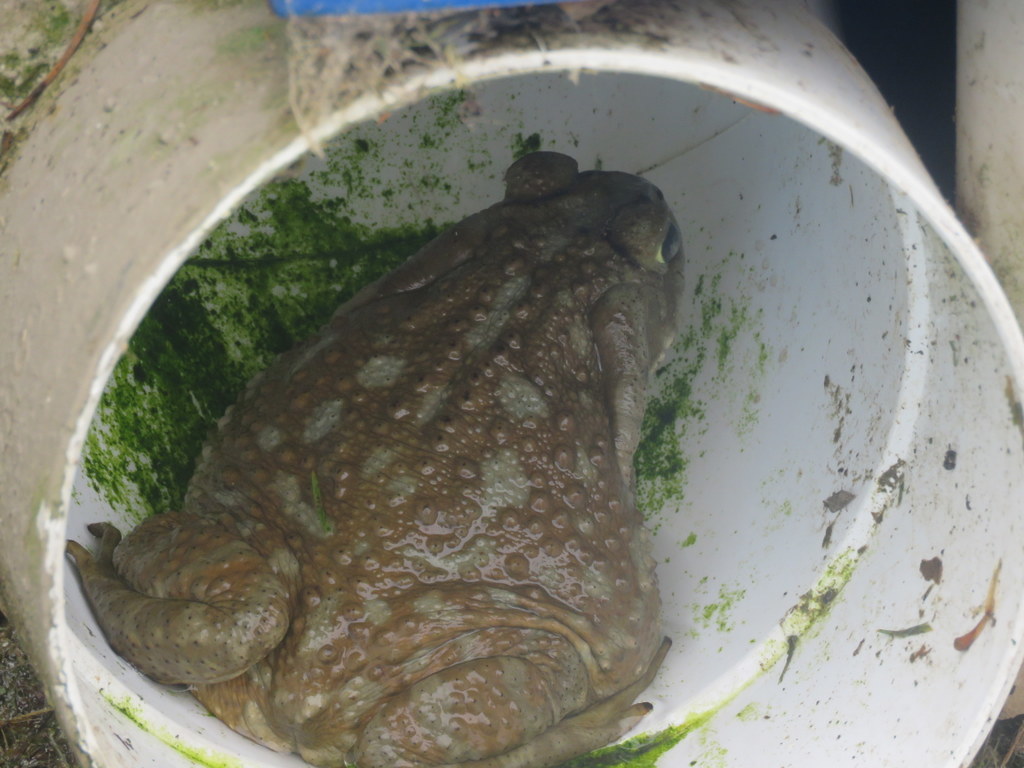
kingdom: Animalia
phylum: Chordata
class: Amphibia
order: Anura
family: Bufonidae
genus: Rhinella
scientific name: Rhinella arenarum
